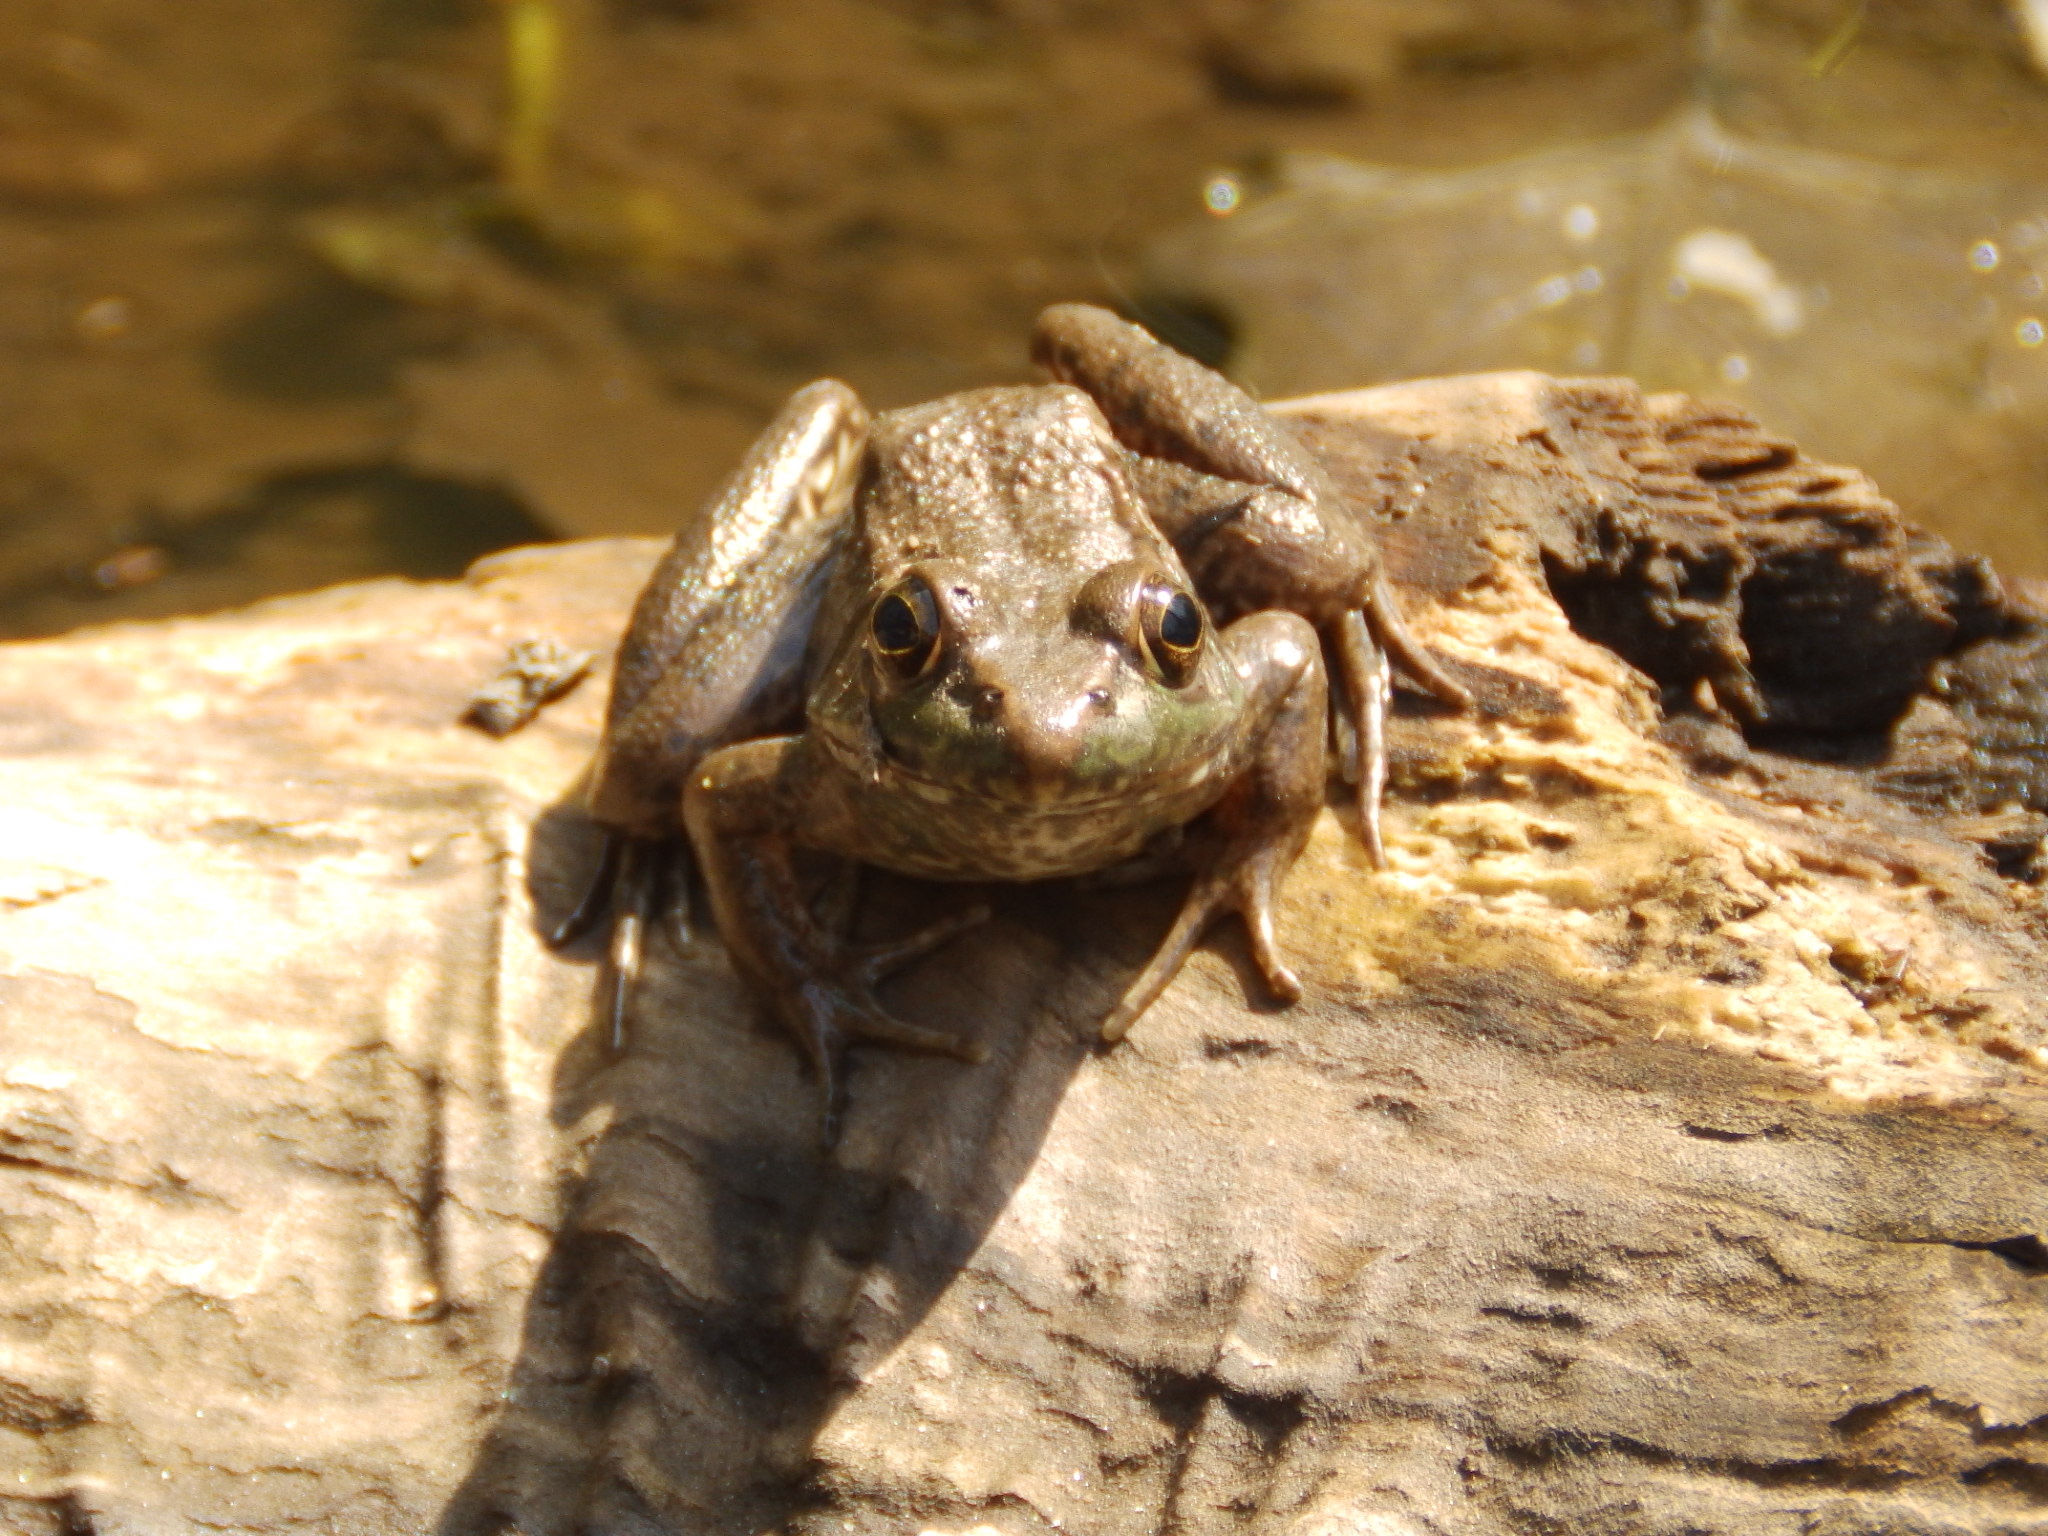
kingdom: Animalia
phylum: Chordata
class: Amphibia
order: Anura
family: Ranidae
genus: Lithobates
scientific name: Lithobates clamitans
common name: Green frog
